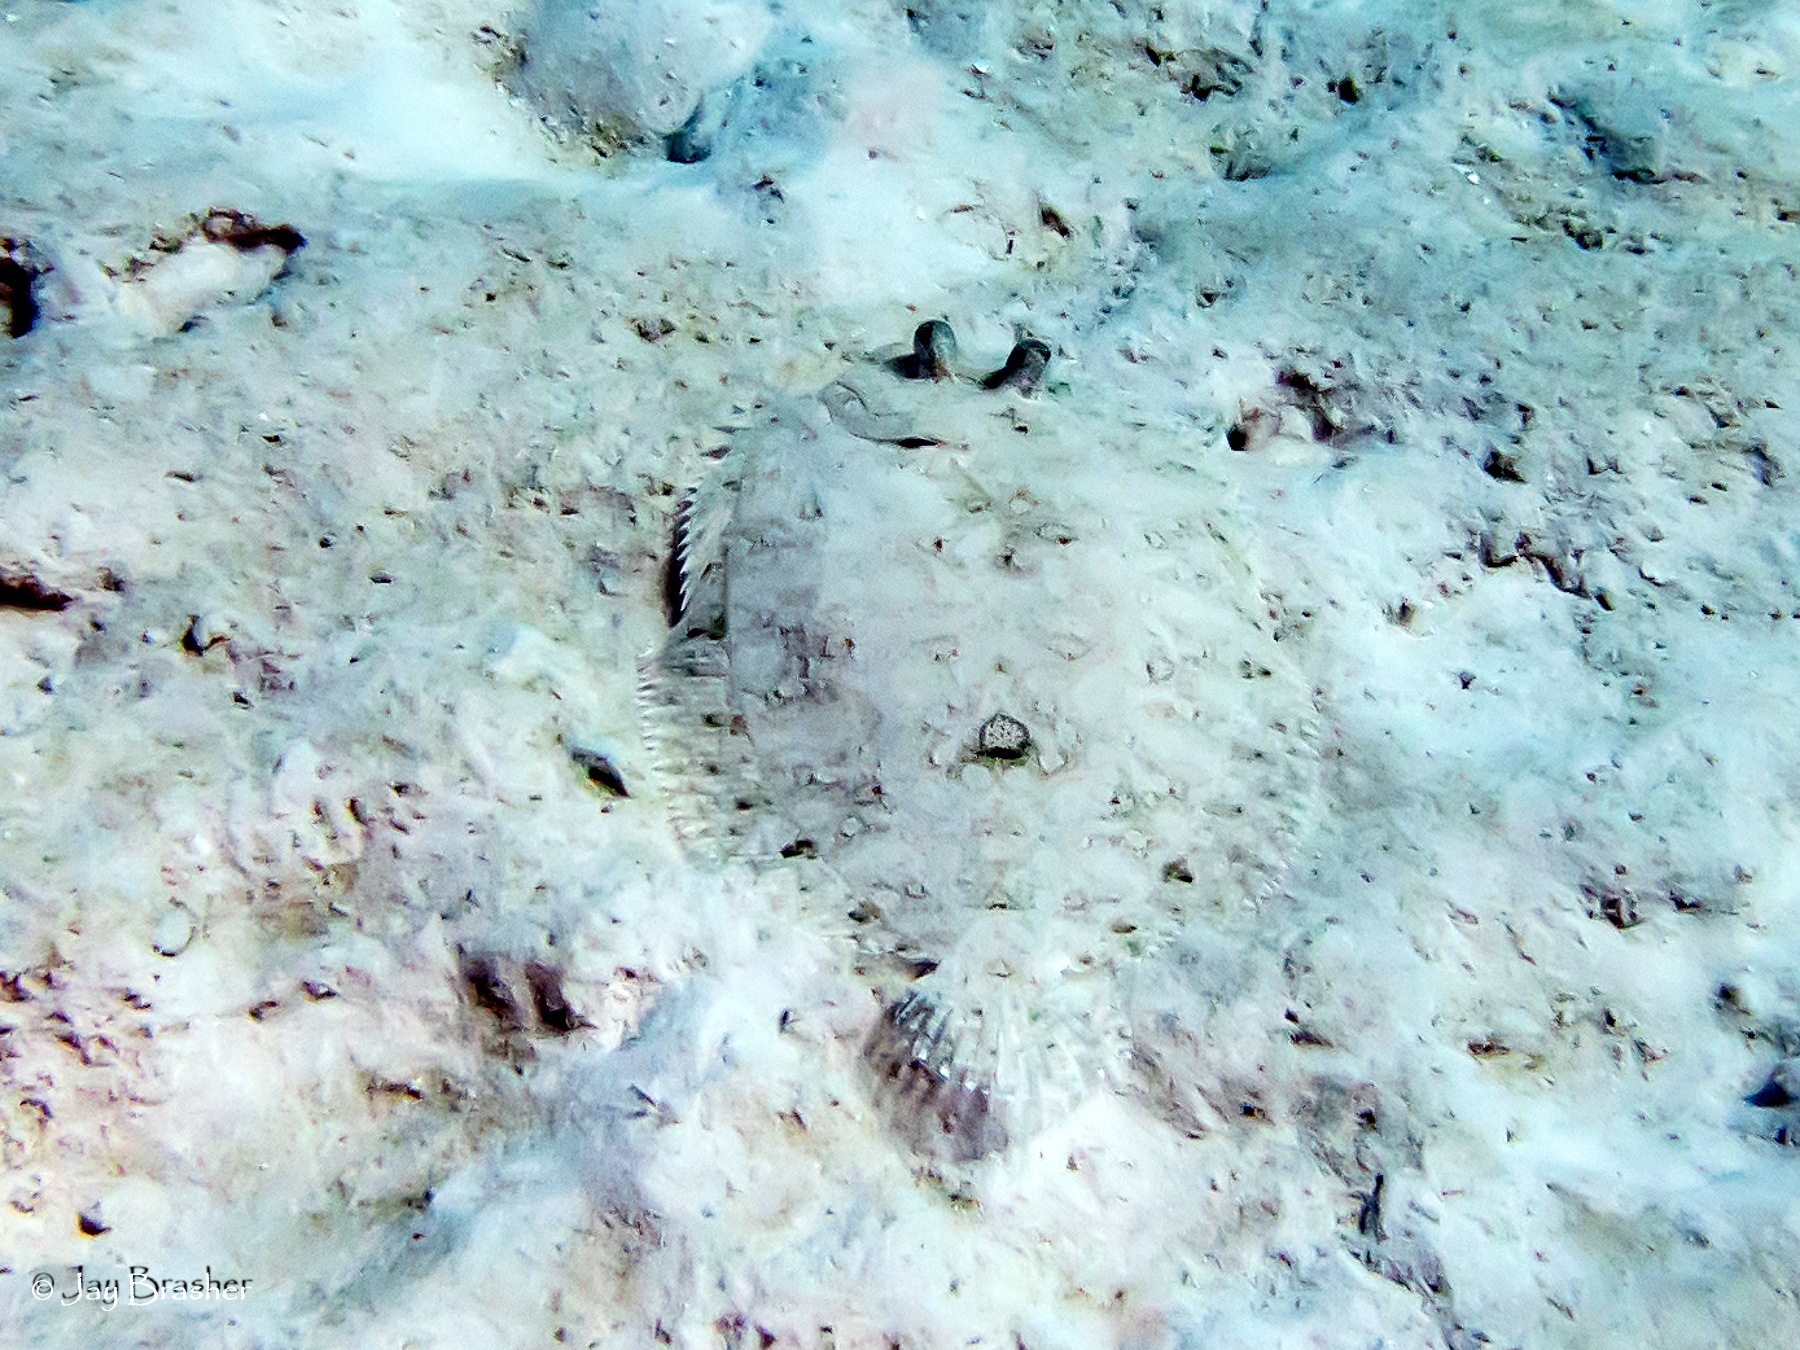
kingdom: Animalia
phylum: Chordata
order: Pleuronectiformes
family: Bothidae
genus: Bothus
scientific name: Bothus lunatus
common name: Peacock flounder
